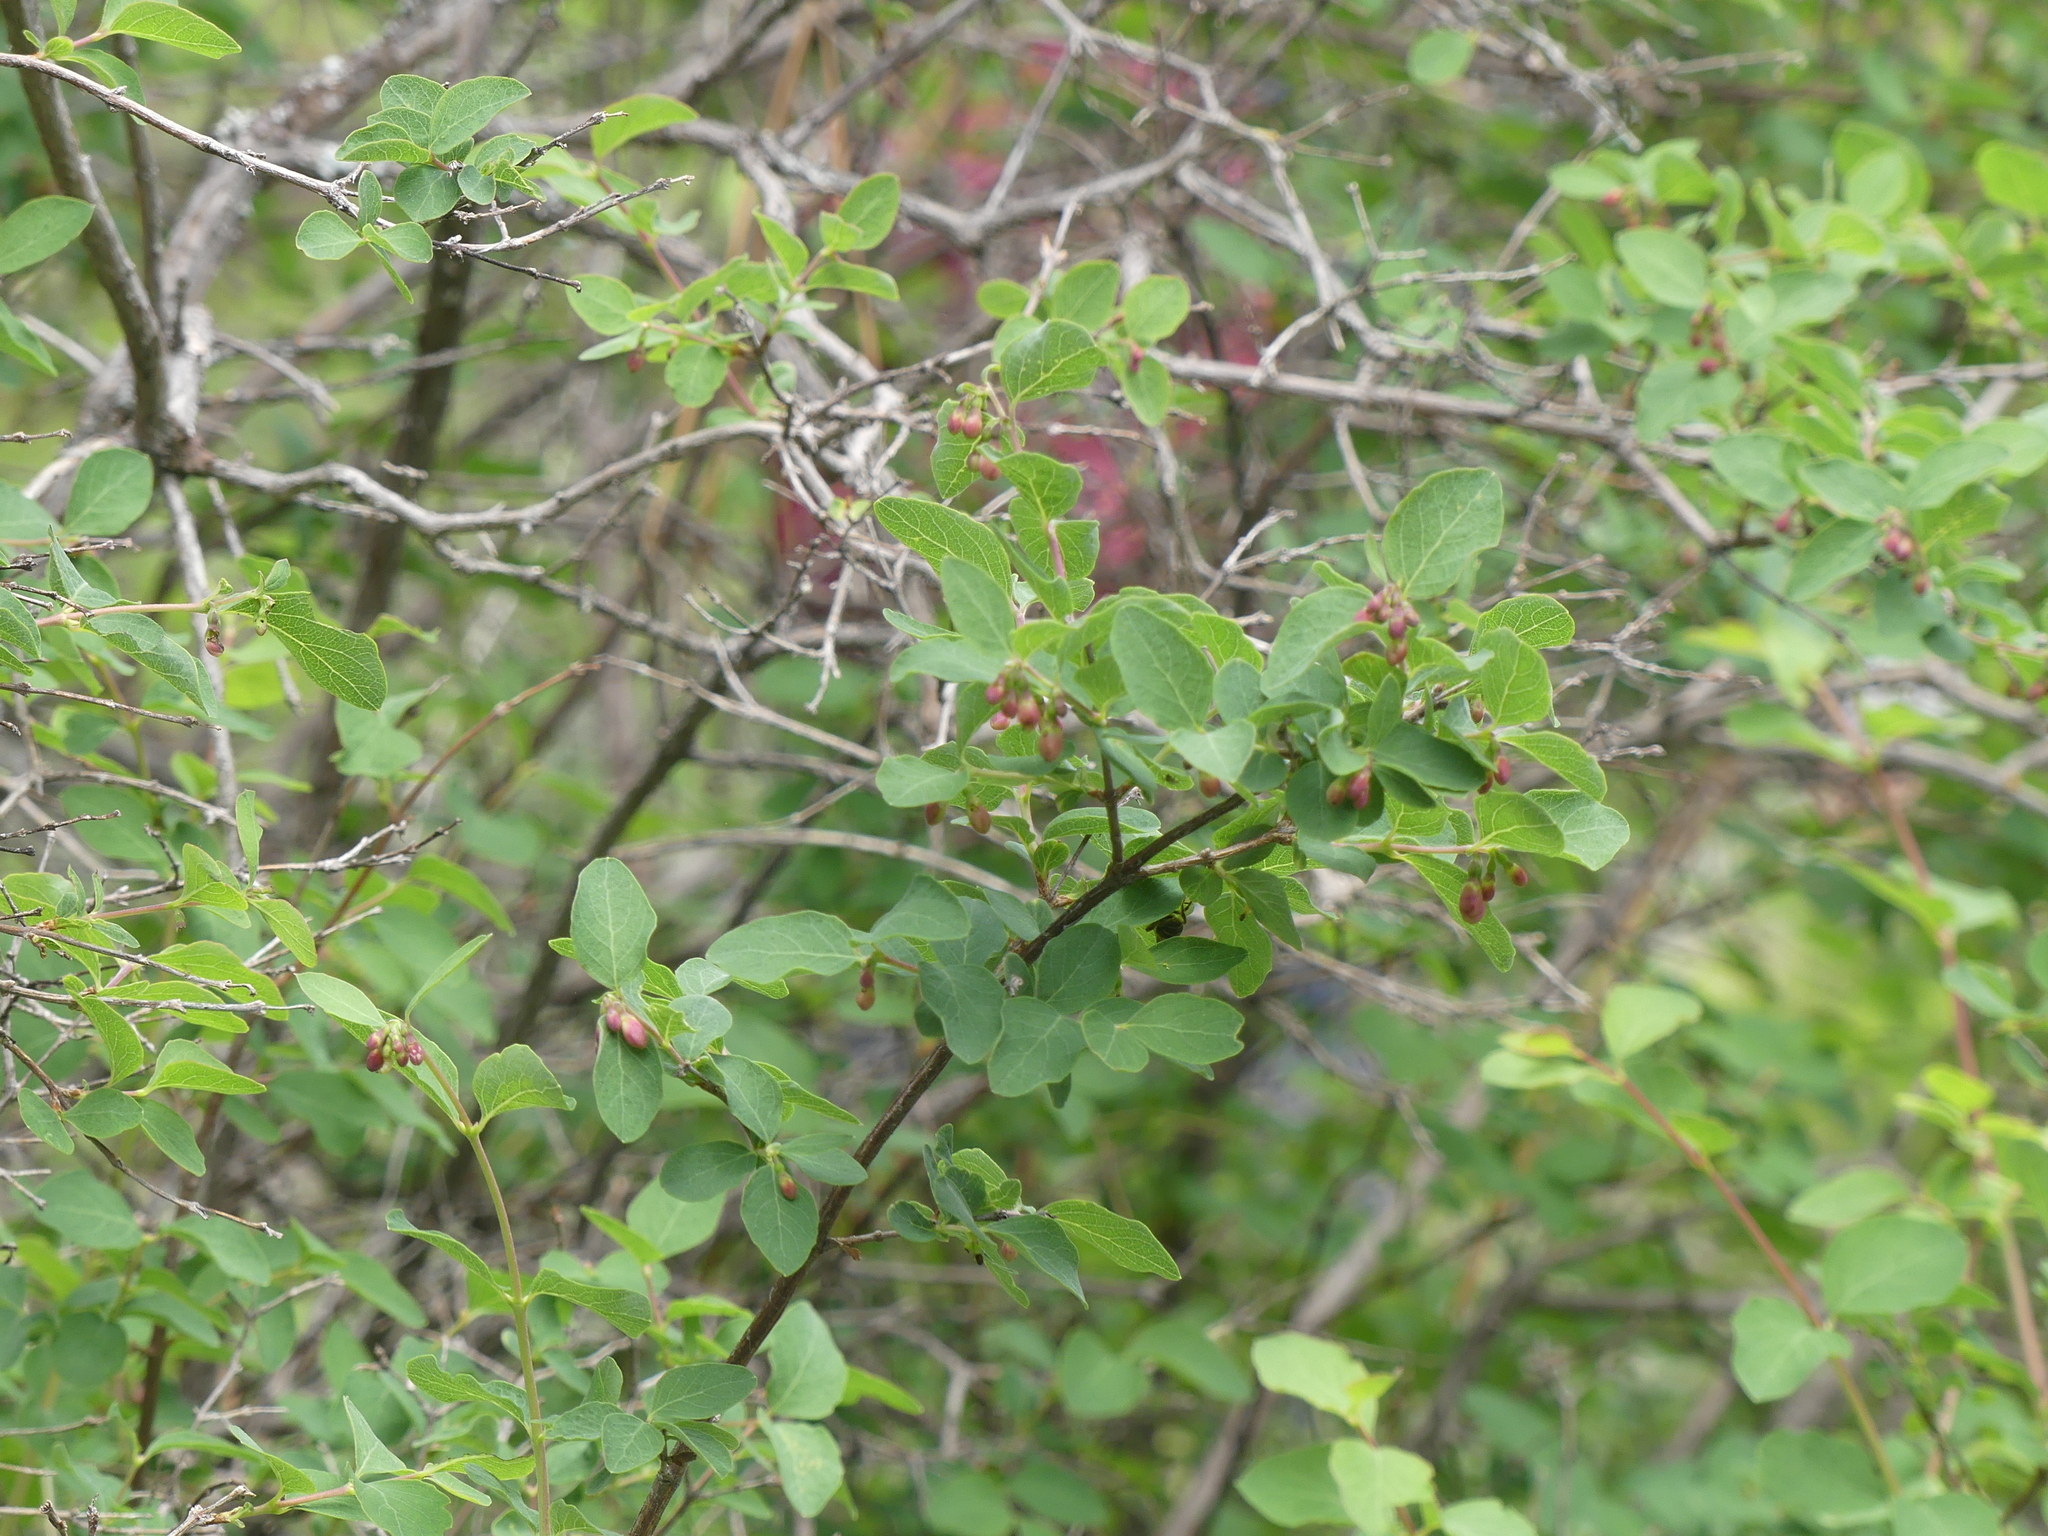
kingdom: Plantae
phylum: Tracheophyta
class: Magnoliopsida
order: Dipsacales
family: Caprifoliaceae
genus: Symphoricarpos
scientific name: Symphoricarpos
